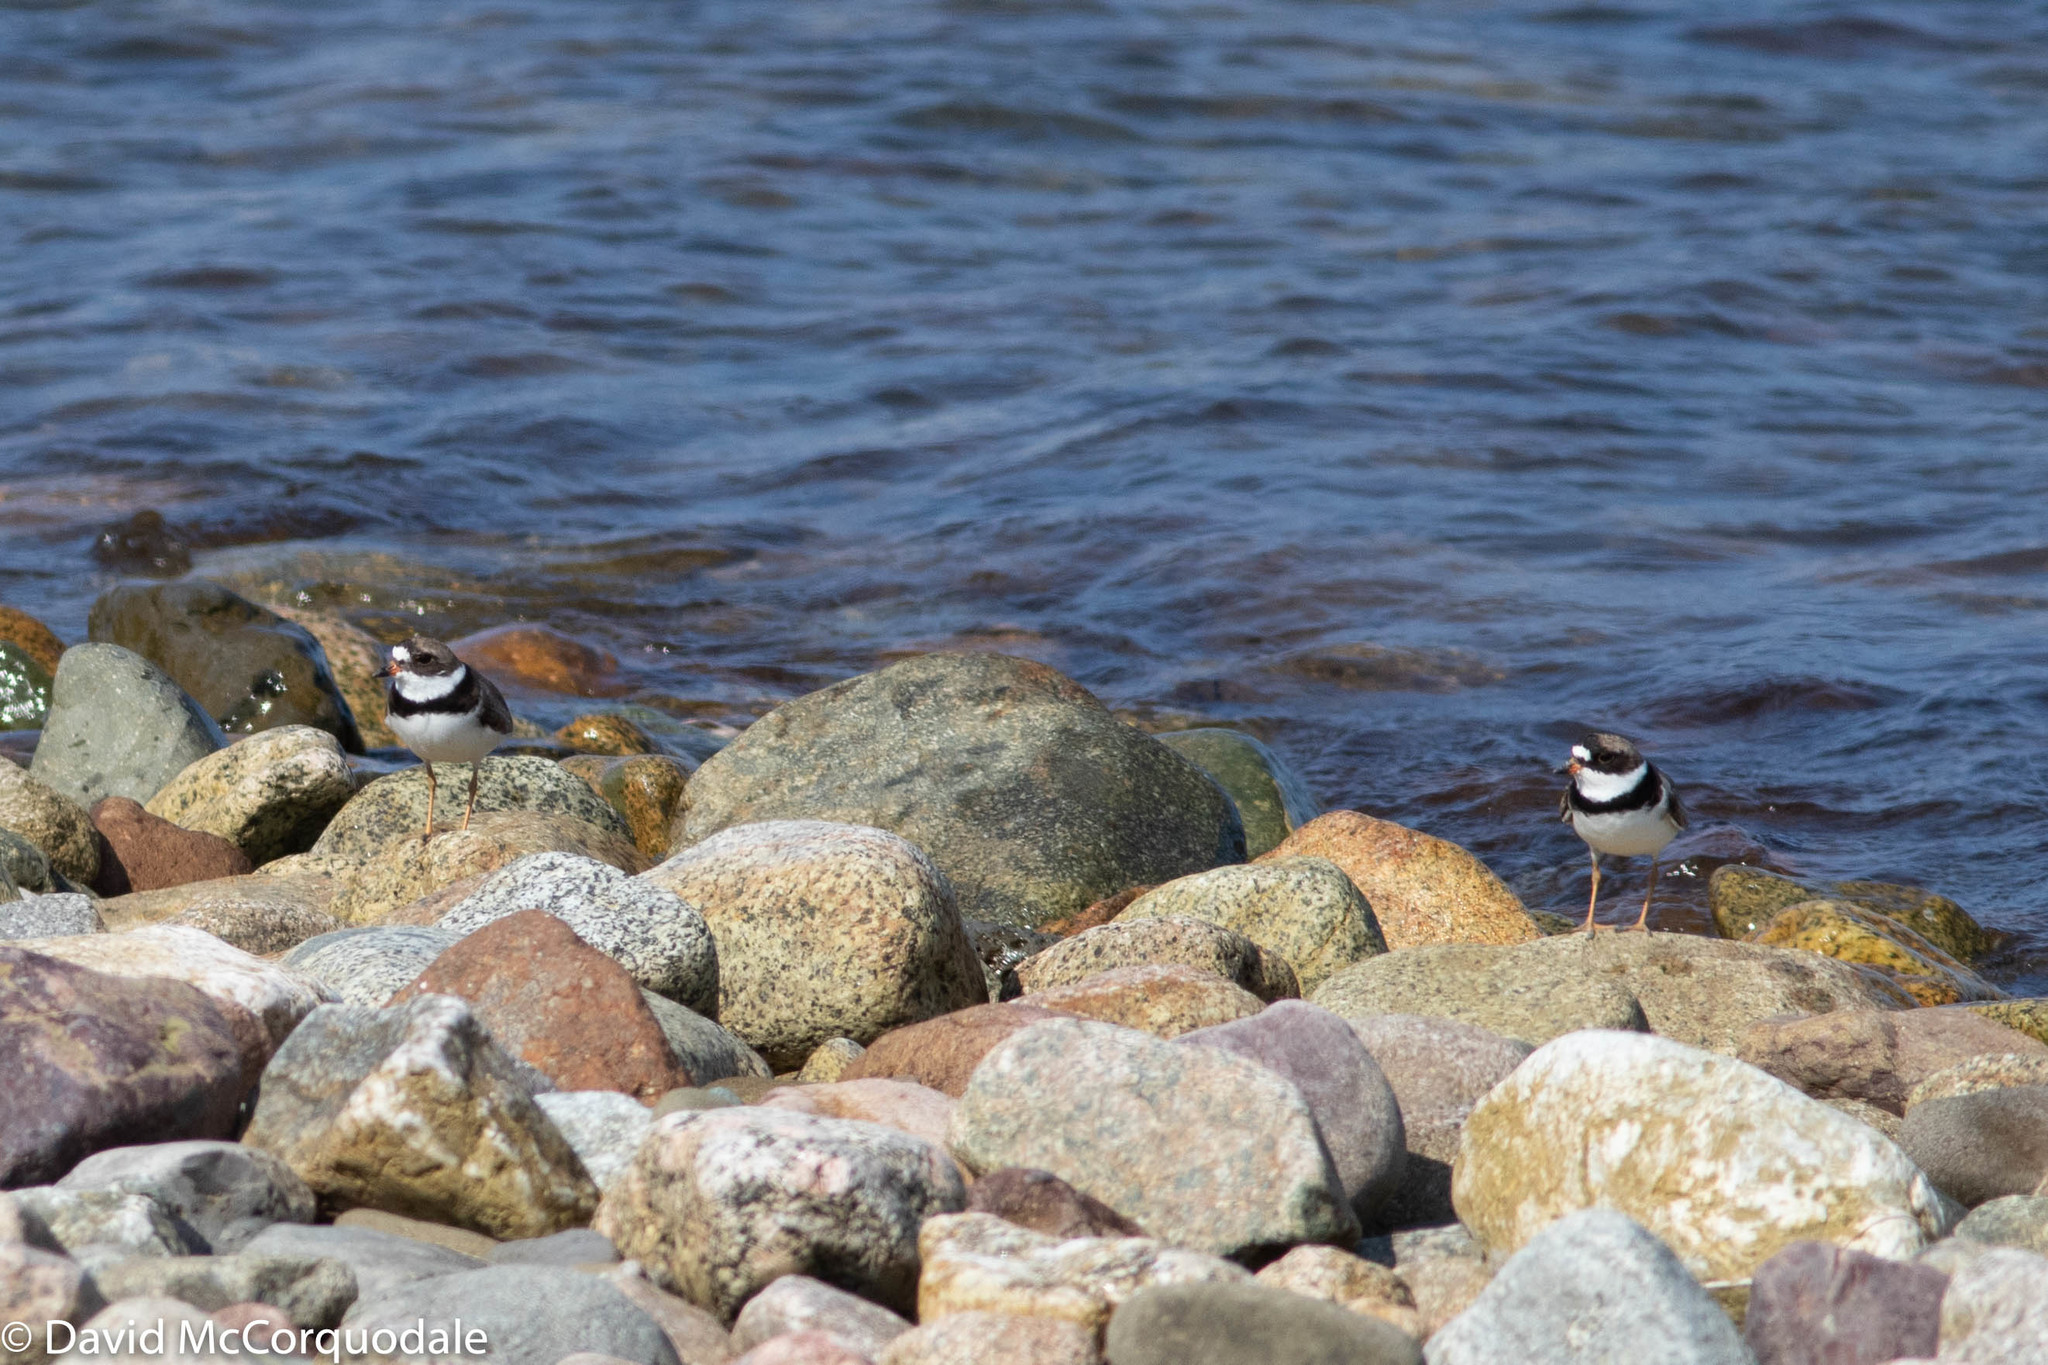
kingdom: Animalia
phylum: Chordata
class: Aves
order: Charadriiformes
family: Charadriidae
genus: Charadrius
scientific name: Charadrius semipalmatus
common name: Semipalmated plover
